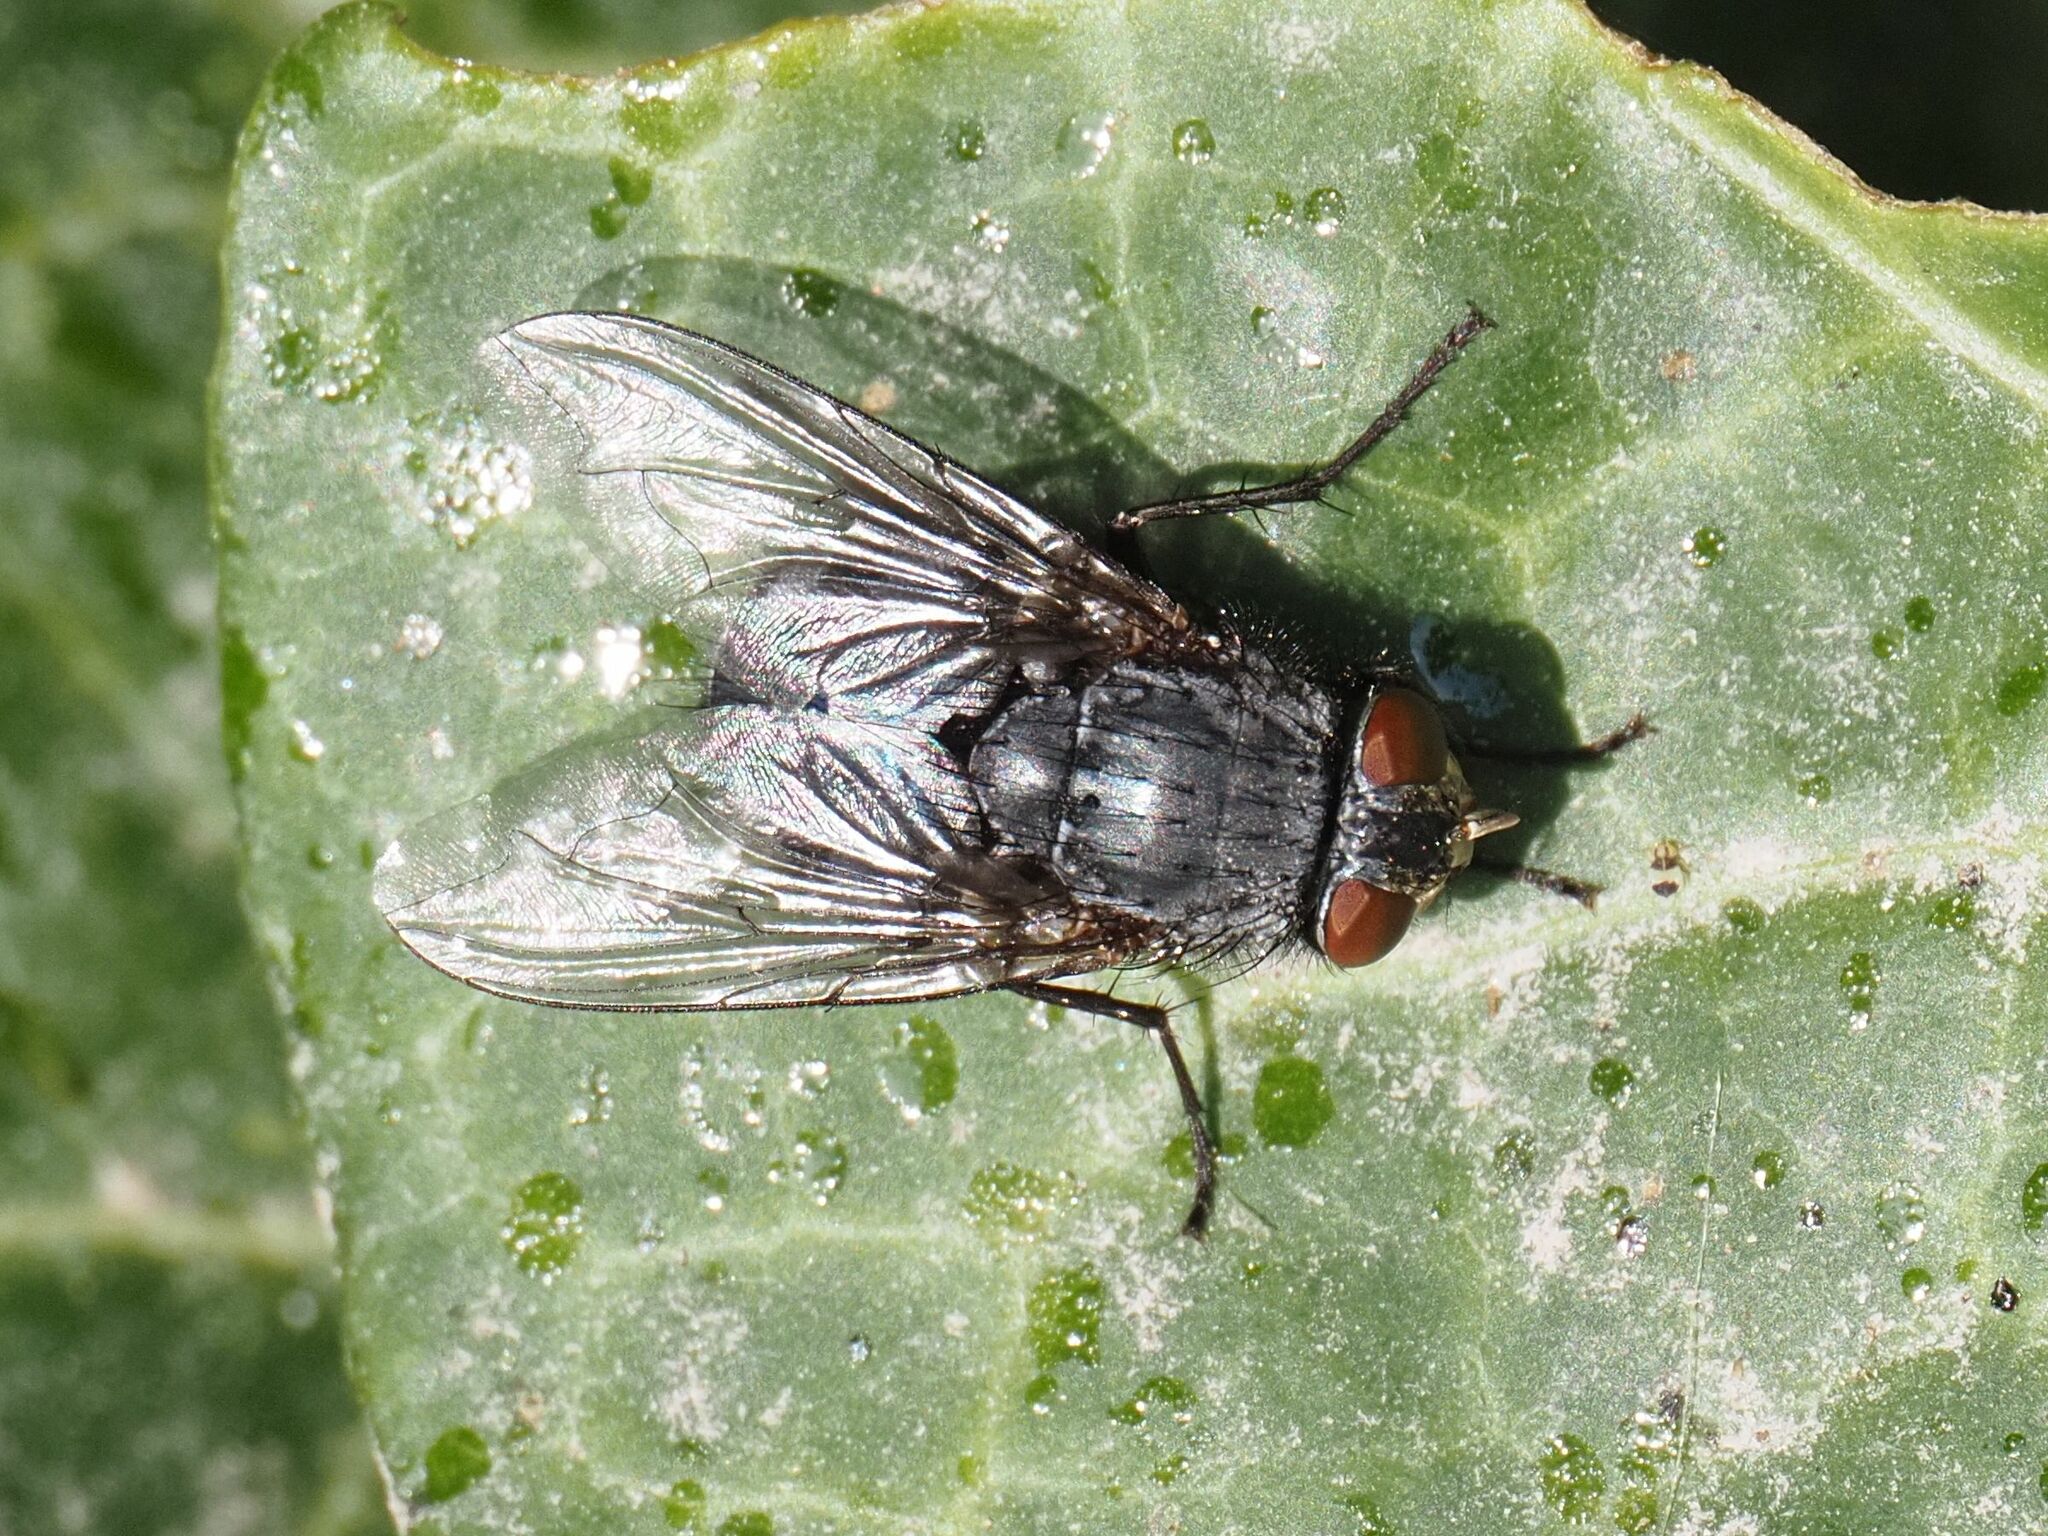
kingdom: Animalia
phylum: Arthropoda
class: Insecta
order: Diptera
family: Calliphoridae
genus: Calliphora
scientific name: Calliphora vicina
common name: Common blow flie
